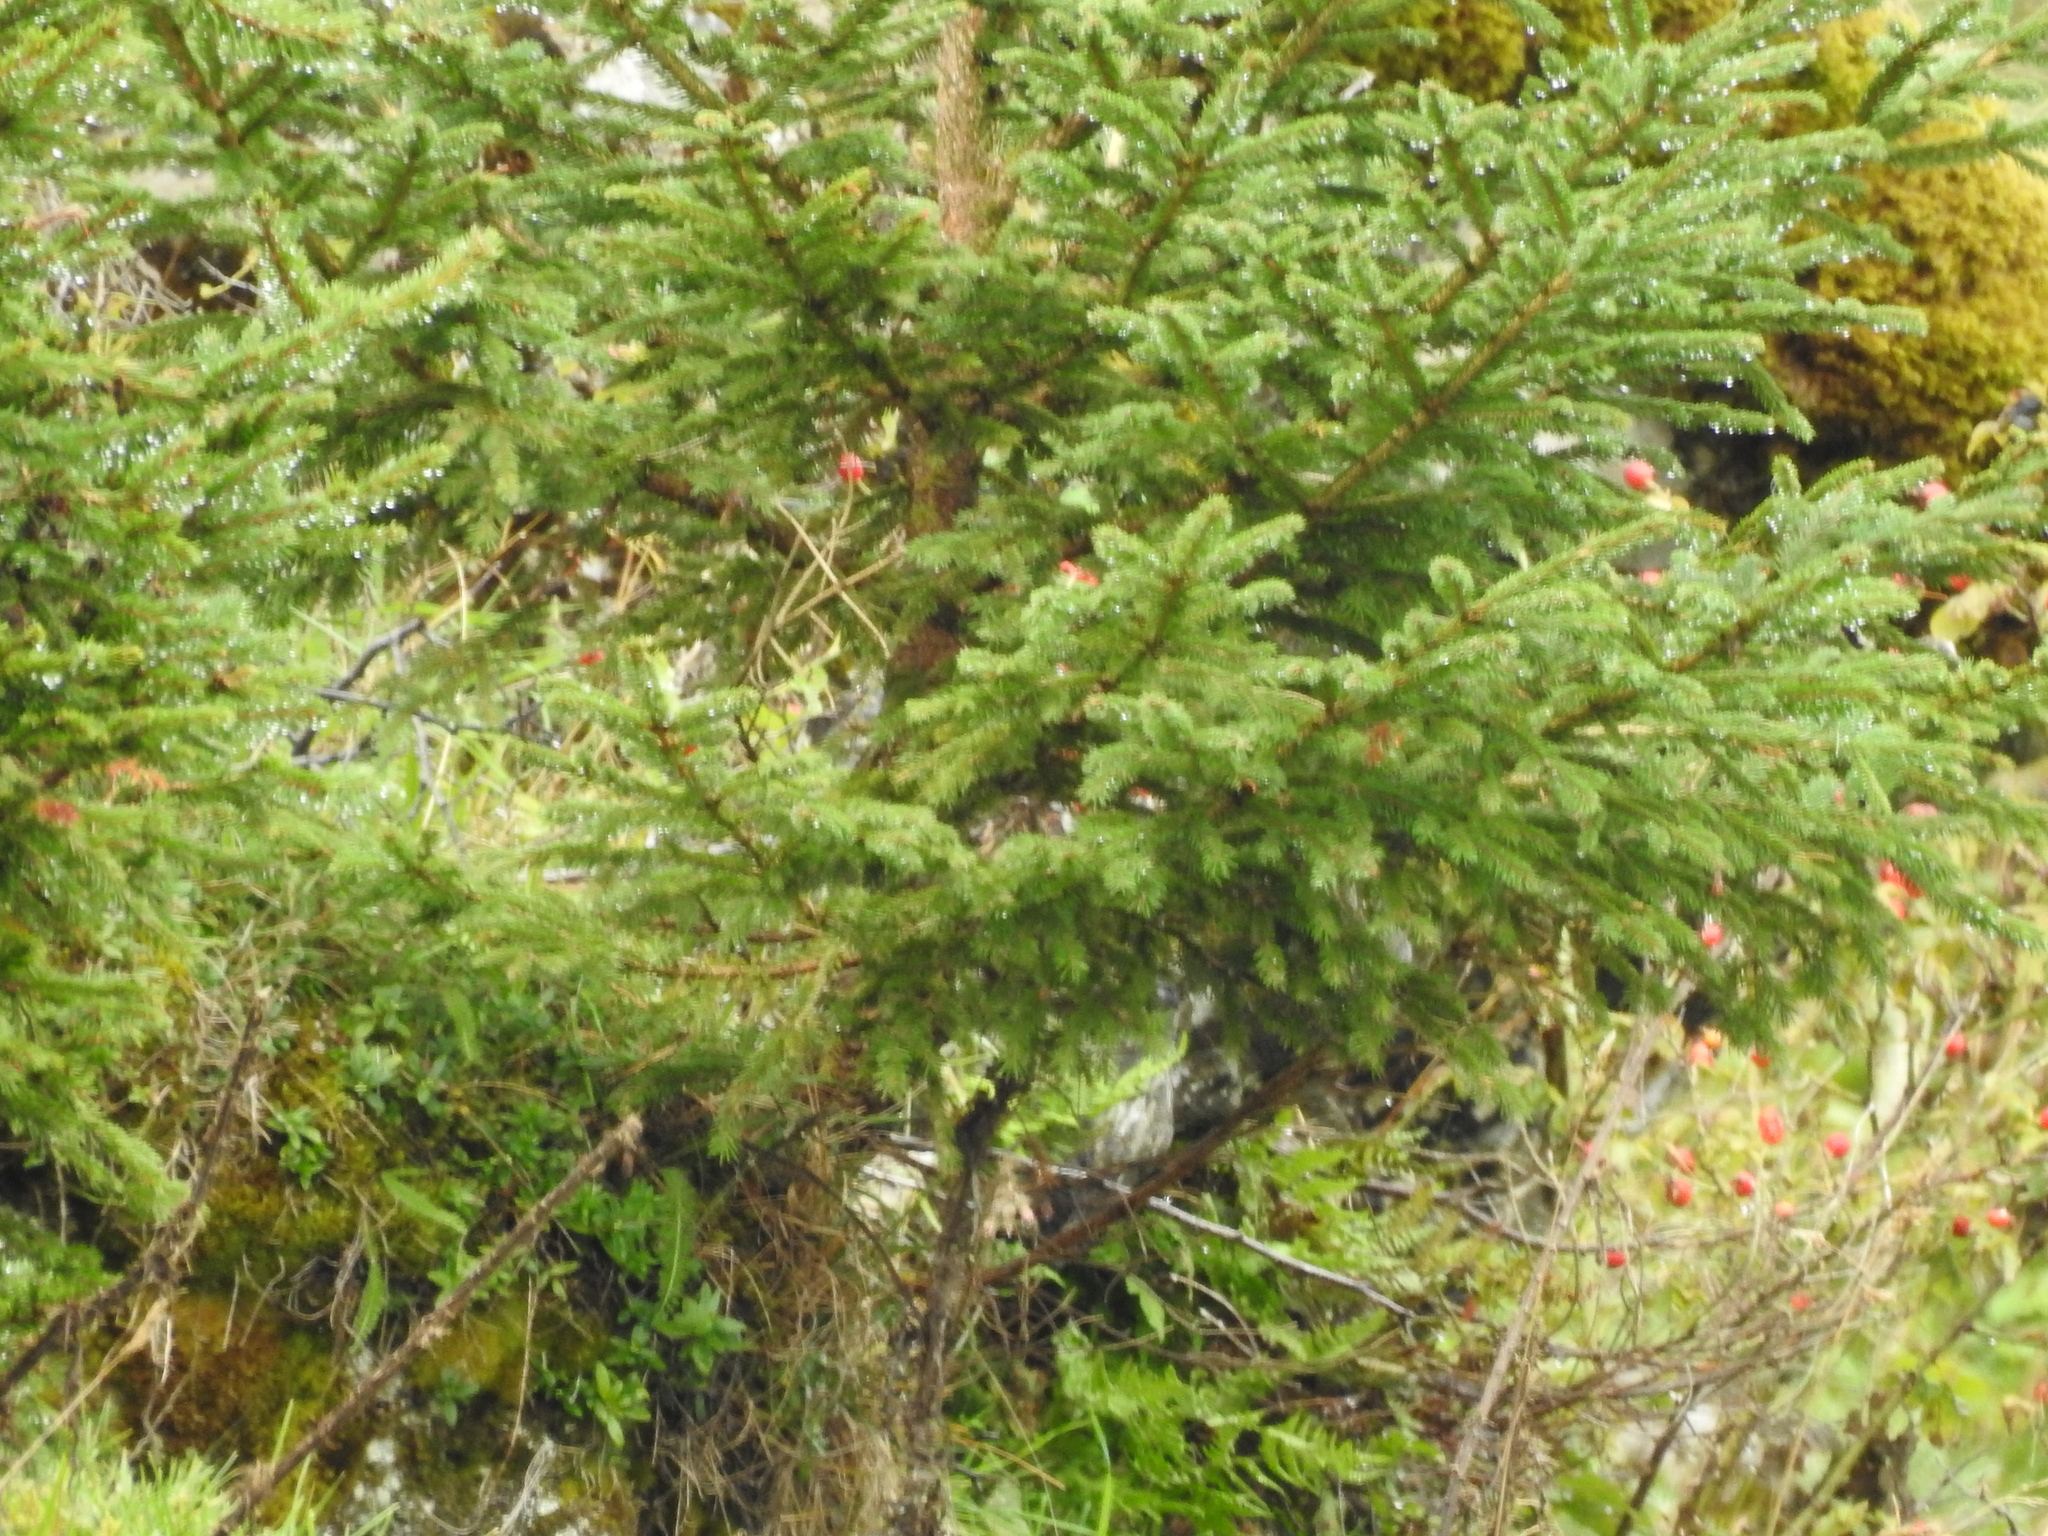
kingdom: Plantae
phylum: Tracheophyta
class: Pinopsida
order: Pinales
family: Pinaceae
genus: Picea
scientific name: Picea abies
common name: Norway spruce
